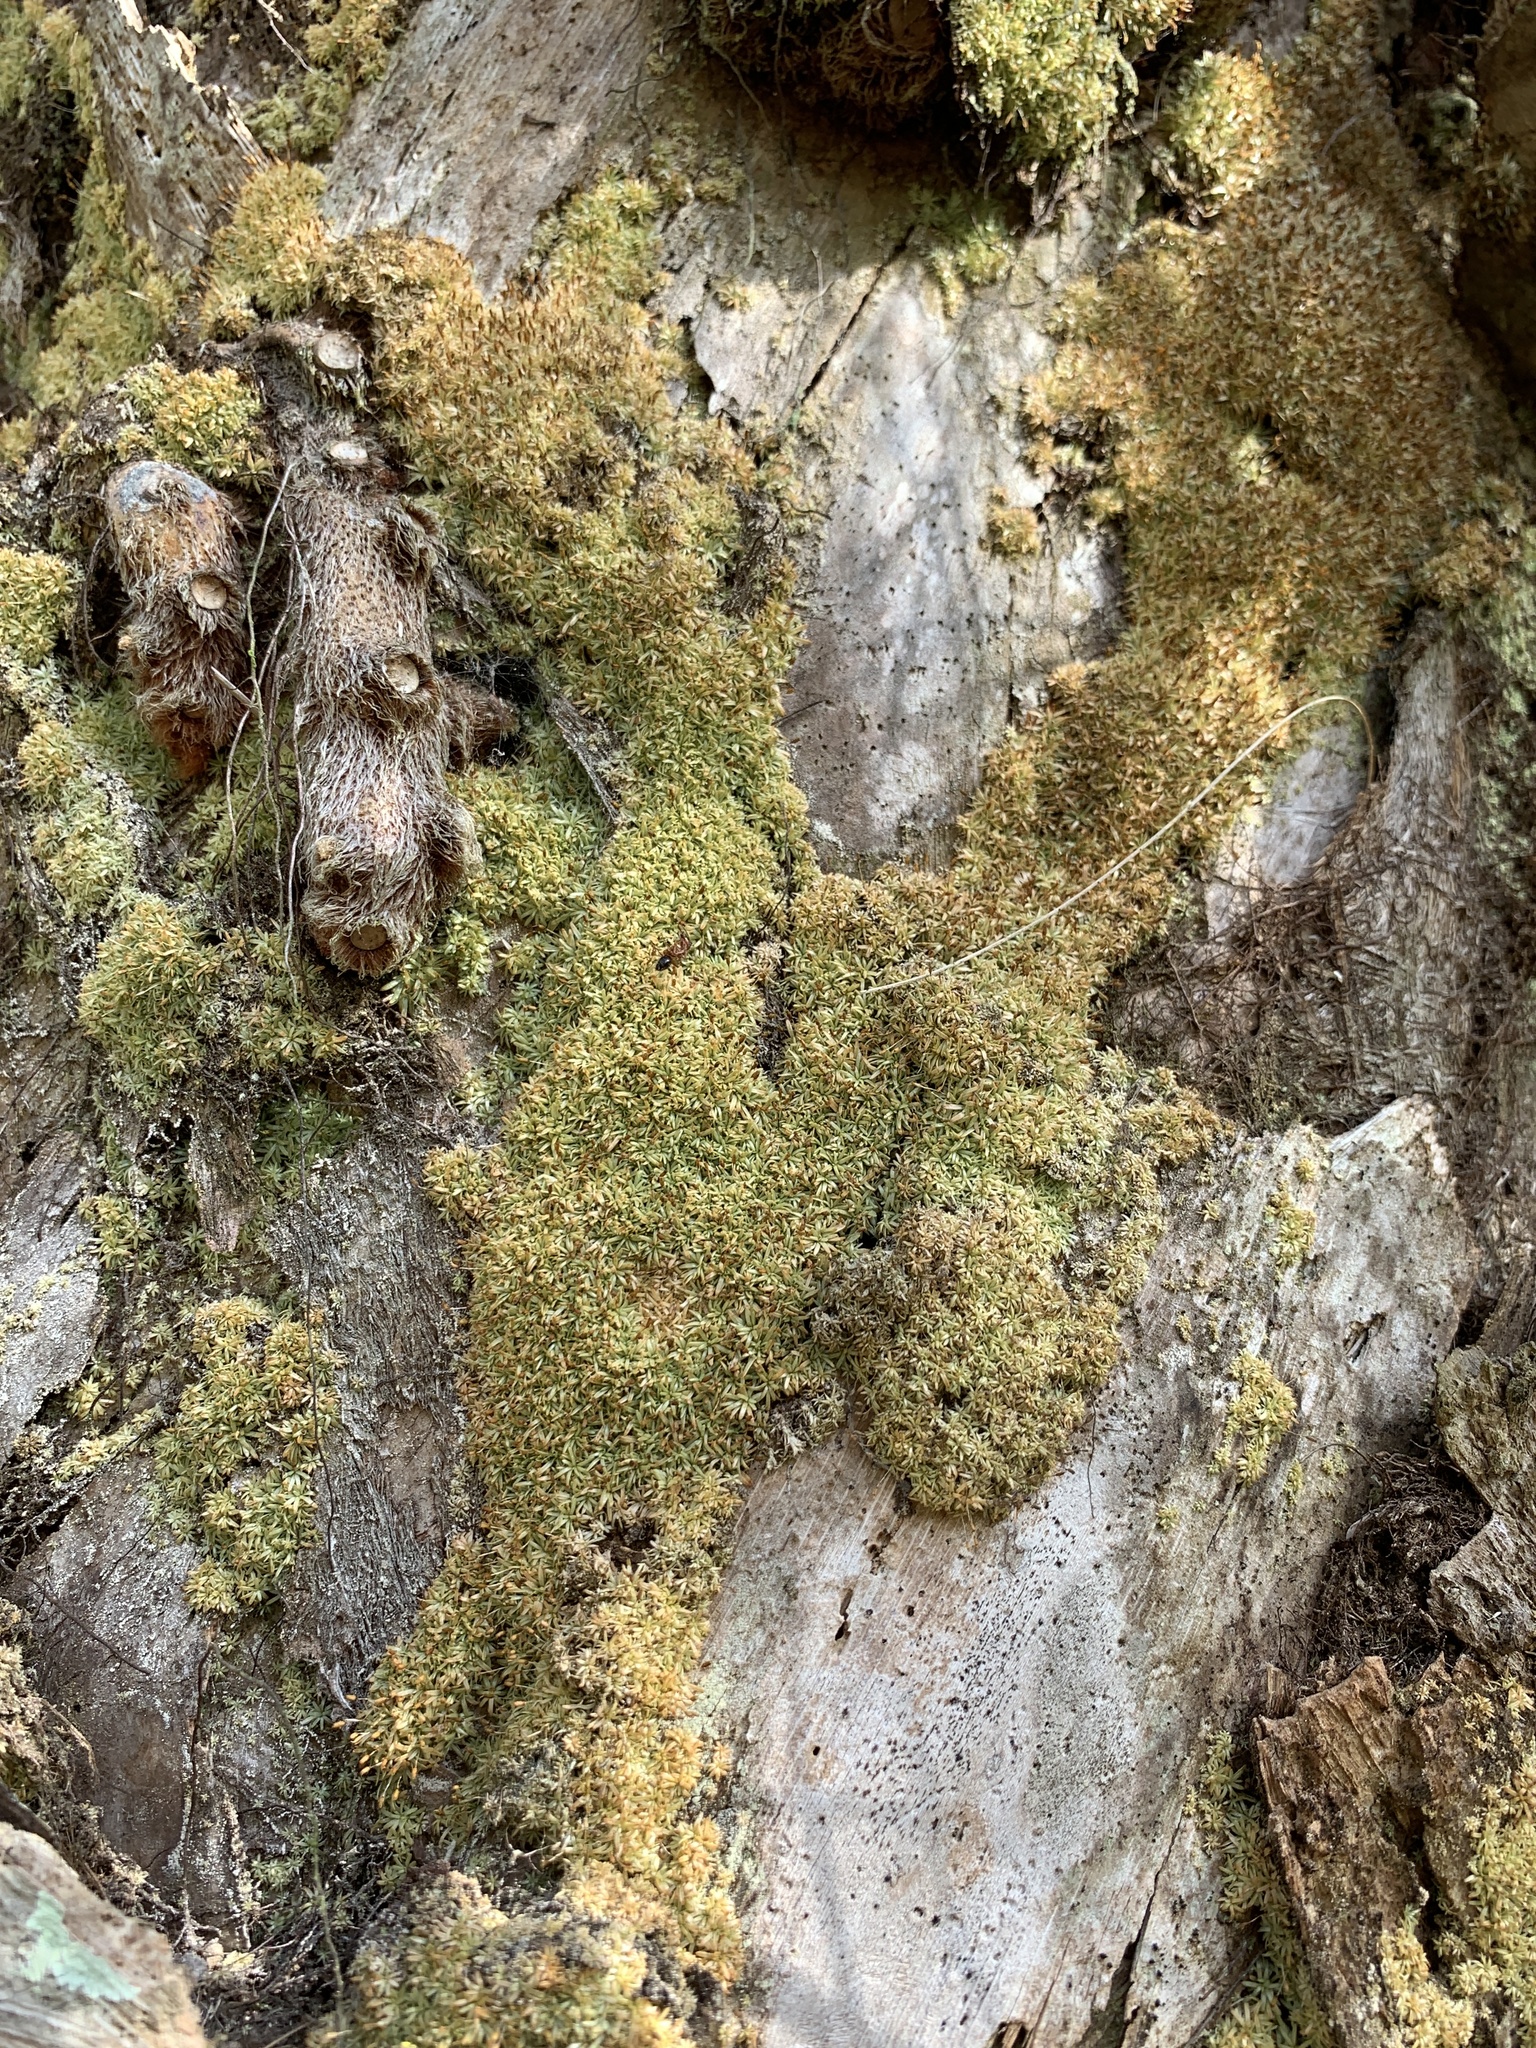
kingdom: Plantae
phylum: Bryophyta
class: Bryopsida
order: Dicranales
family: Octoblepharaceae
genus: Octoblepharum
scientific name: Octoblepharum albidum
